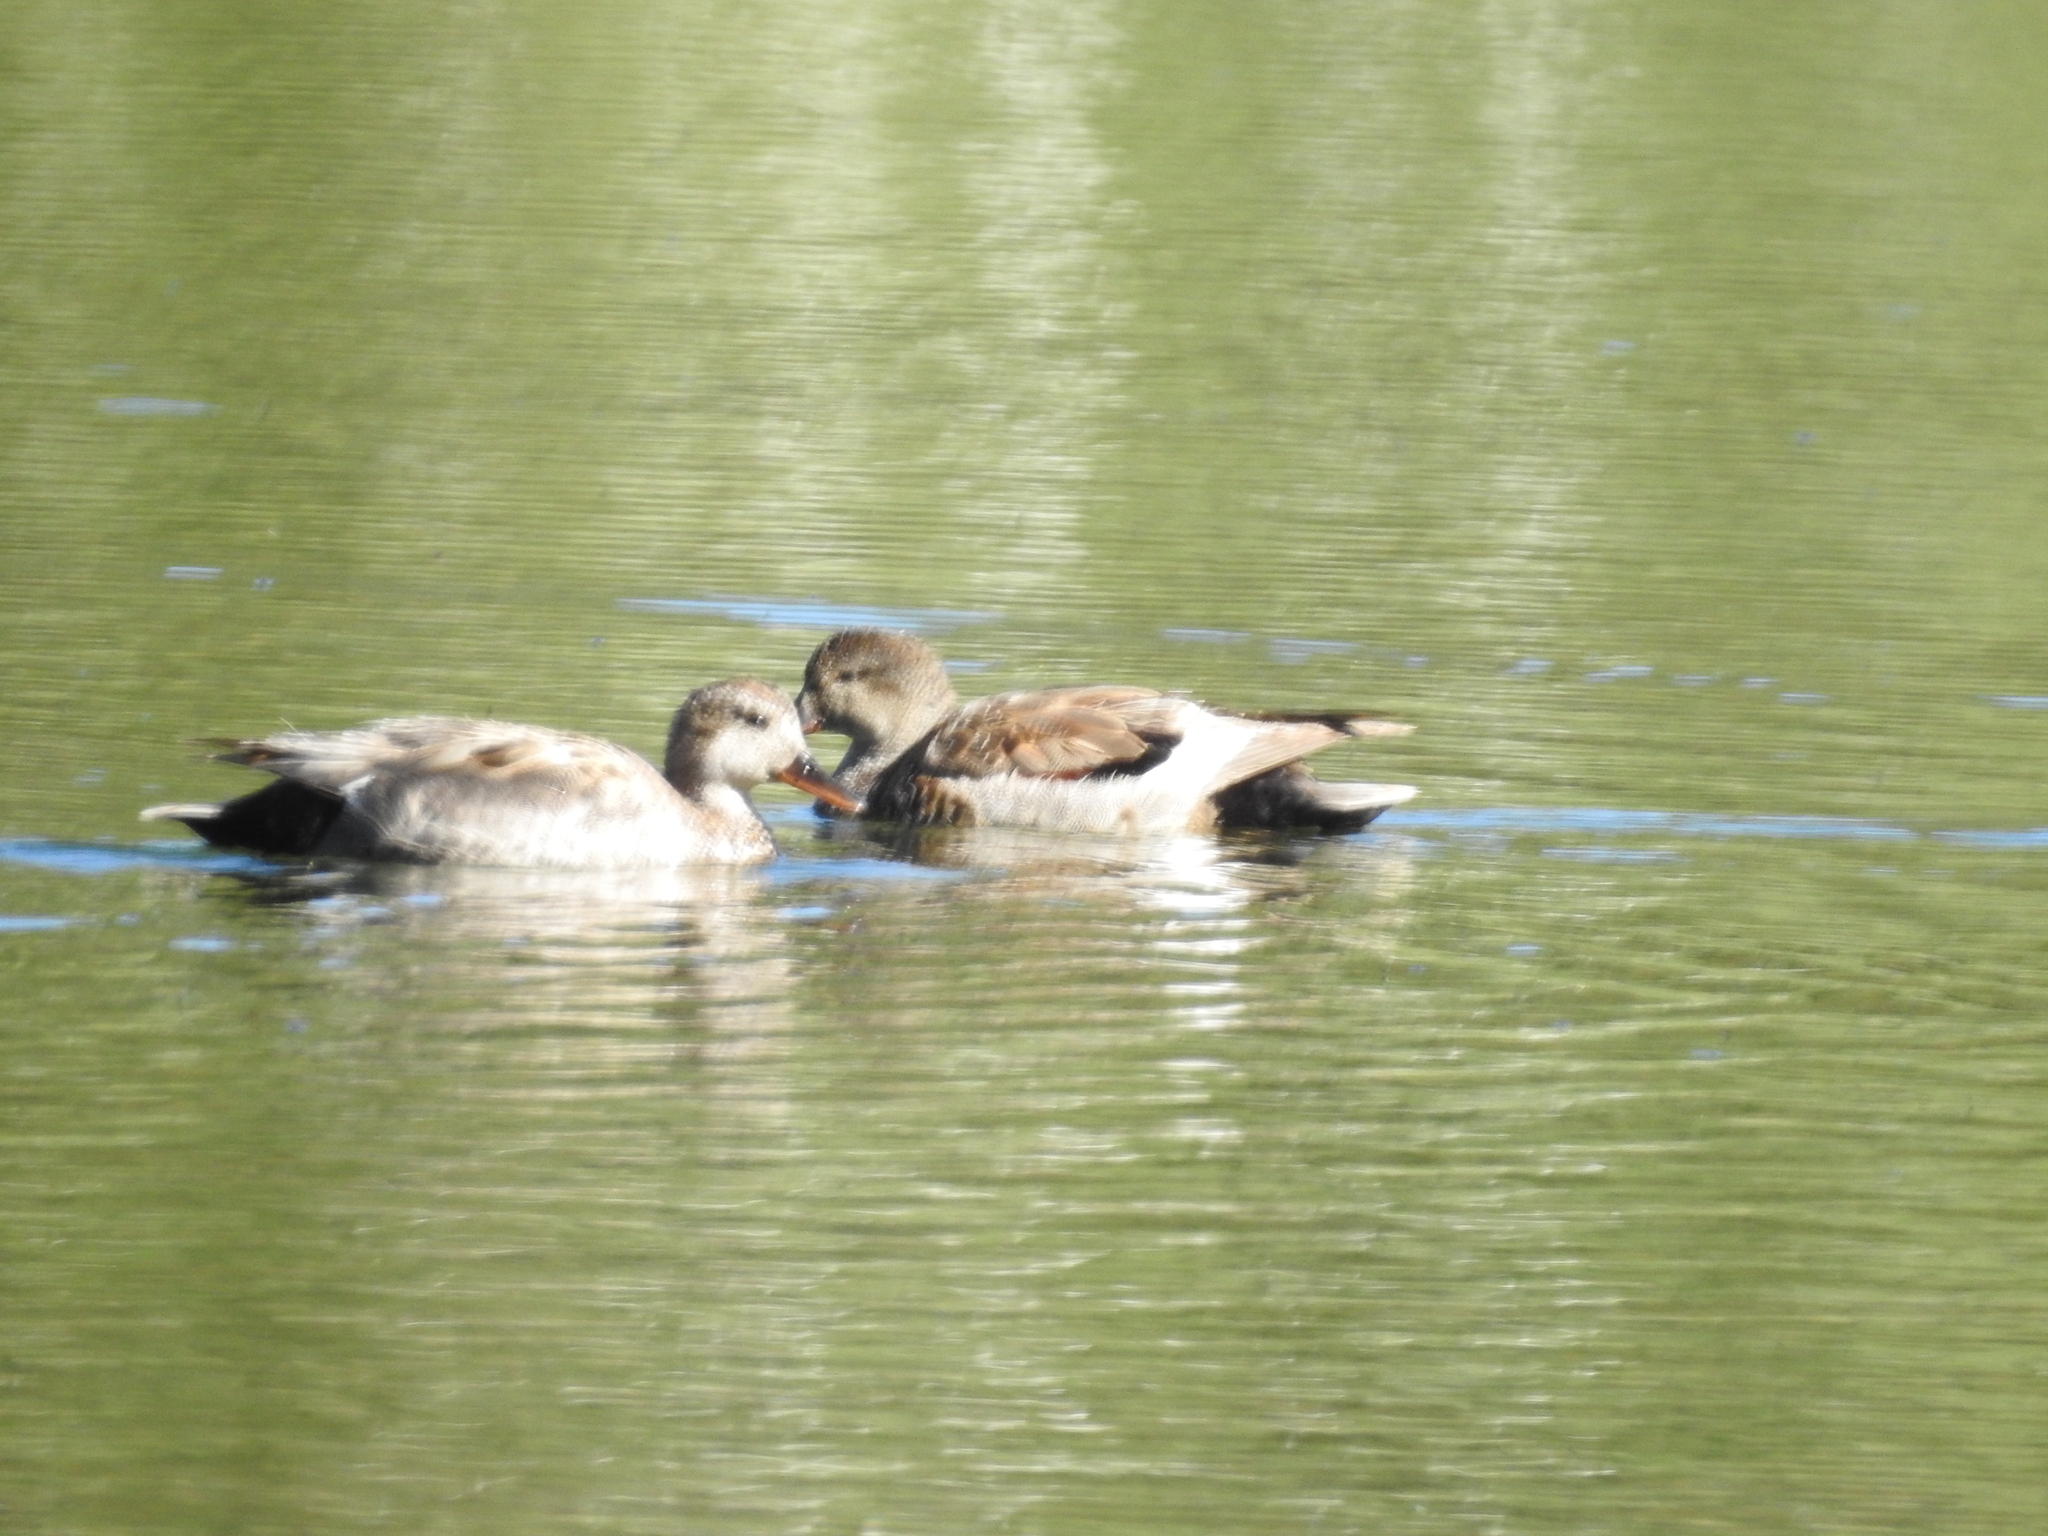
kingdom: Animalia
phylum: Chordata
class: Aves
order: Anseriformes
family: Anatidae
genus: Mareca
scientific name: Mareca strepera
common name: Gadwall
